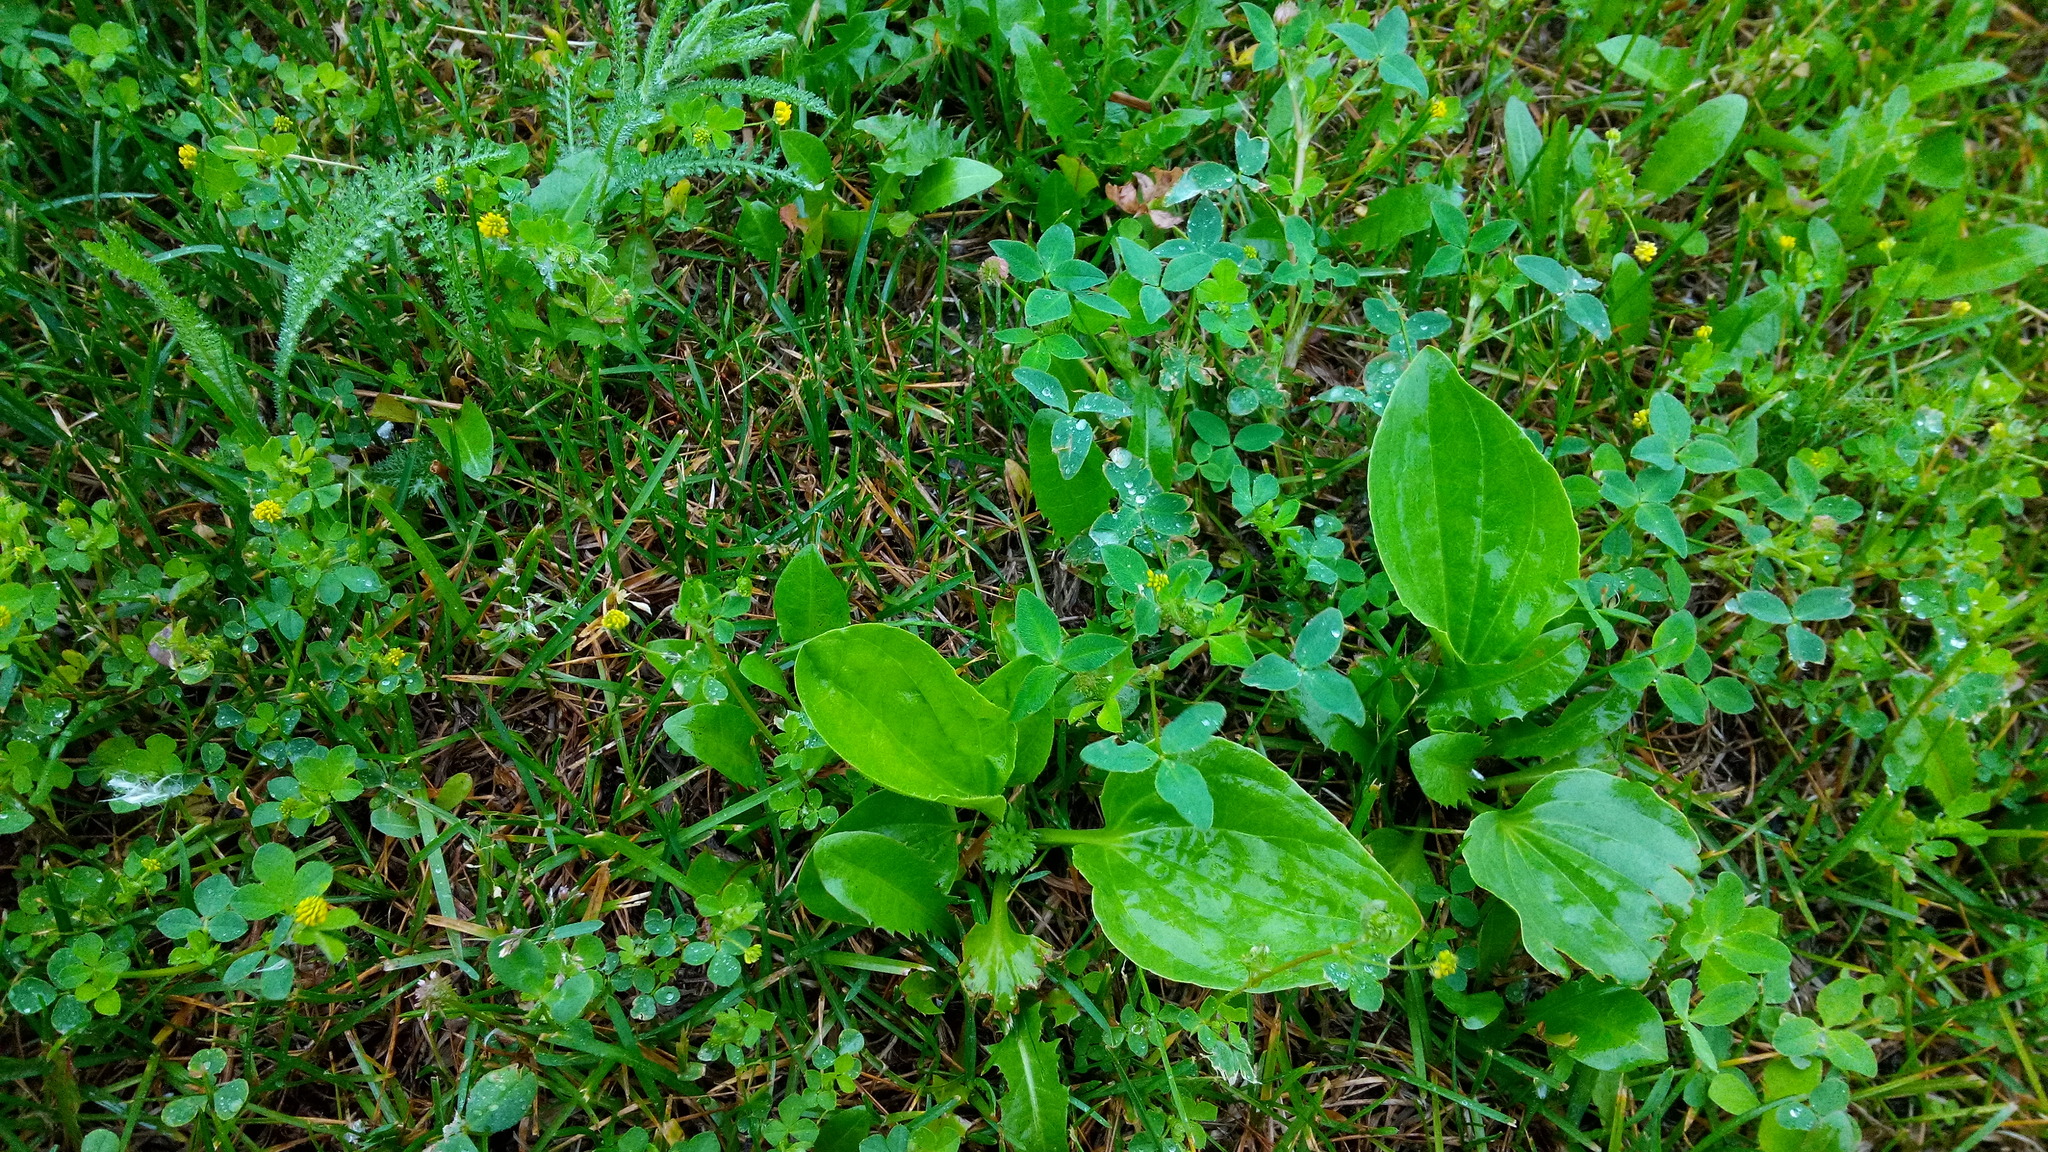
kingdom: Plantae
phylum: Tracheophyta
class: Magnoliopsida
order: Lamiales
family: Plantaginaceae
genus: Plantago
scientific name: Plantago major
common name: Common plantain
